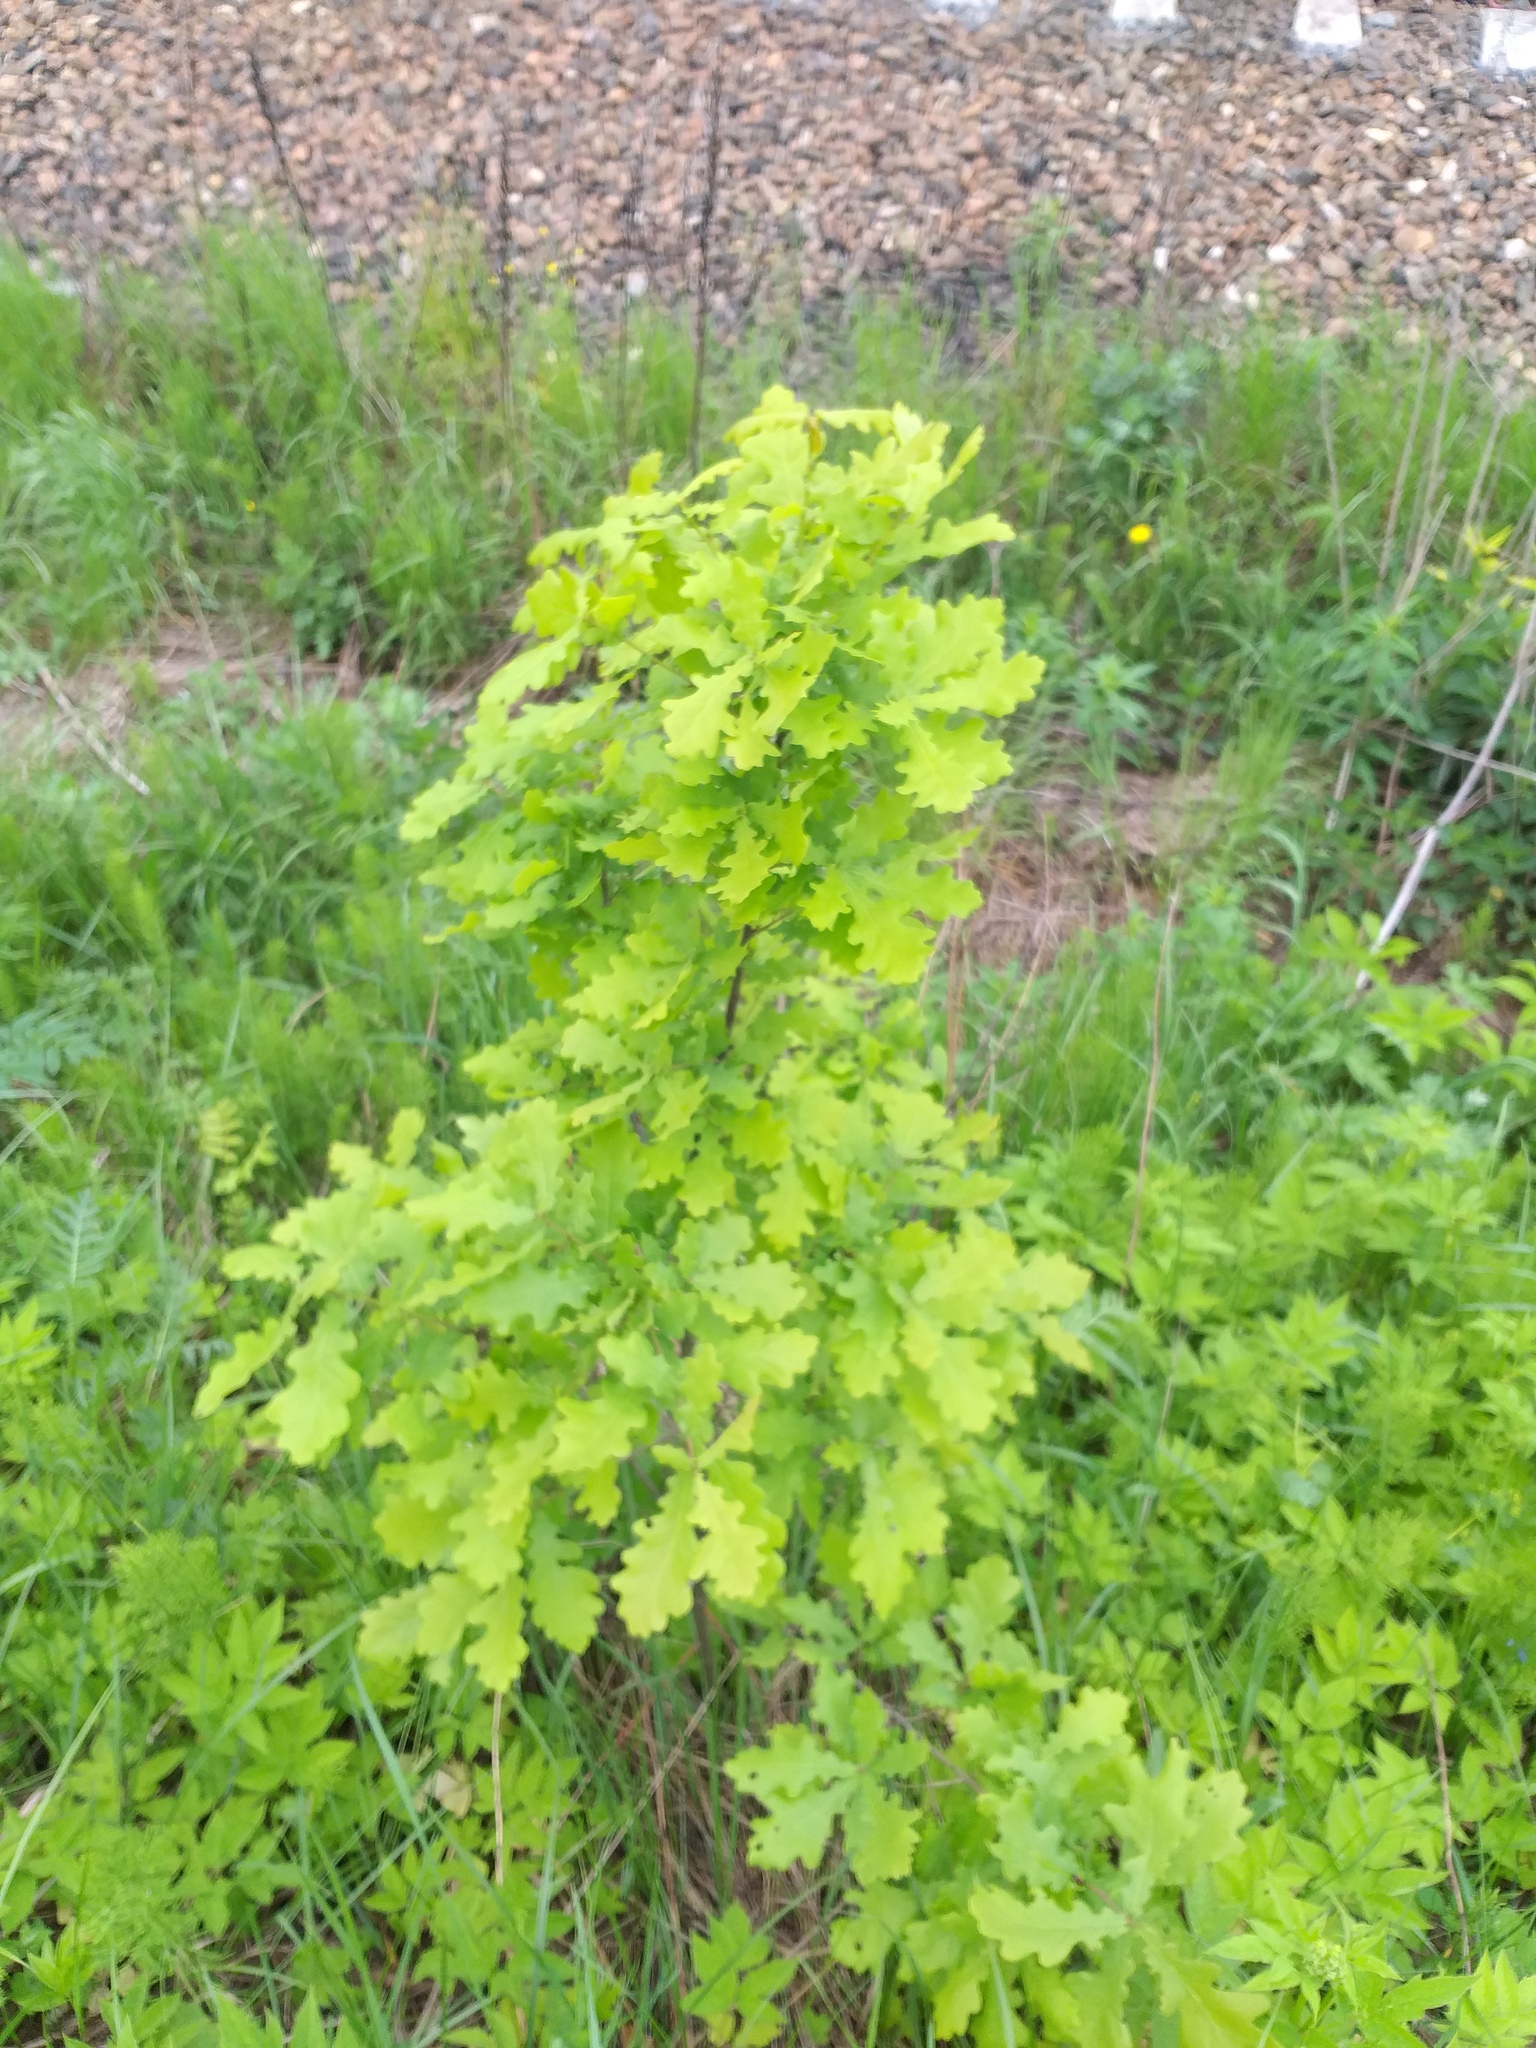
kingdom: Plantae
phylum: Tracheophyta
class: Magnoliopsida
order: Fagales
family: Fagaceae
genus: Quercus
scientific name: Quercus robur
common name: Pedunculate oak
